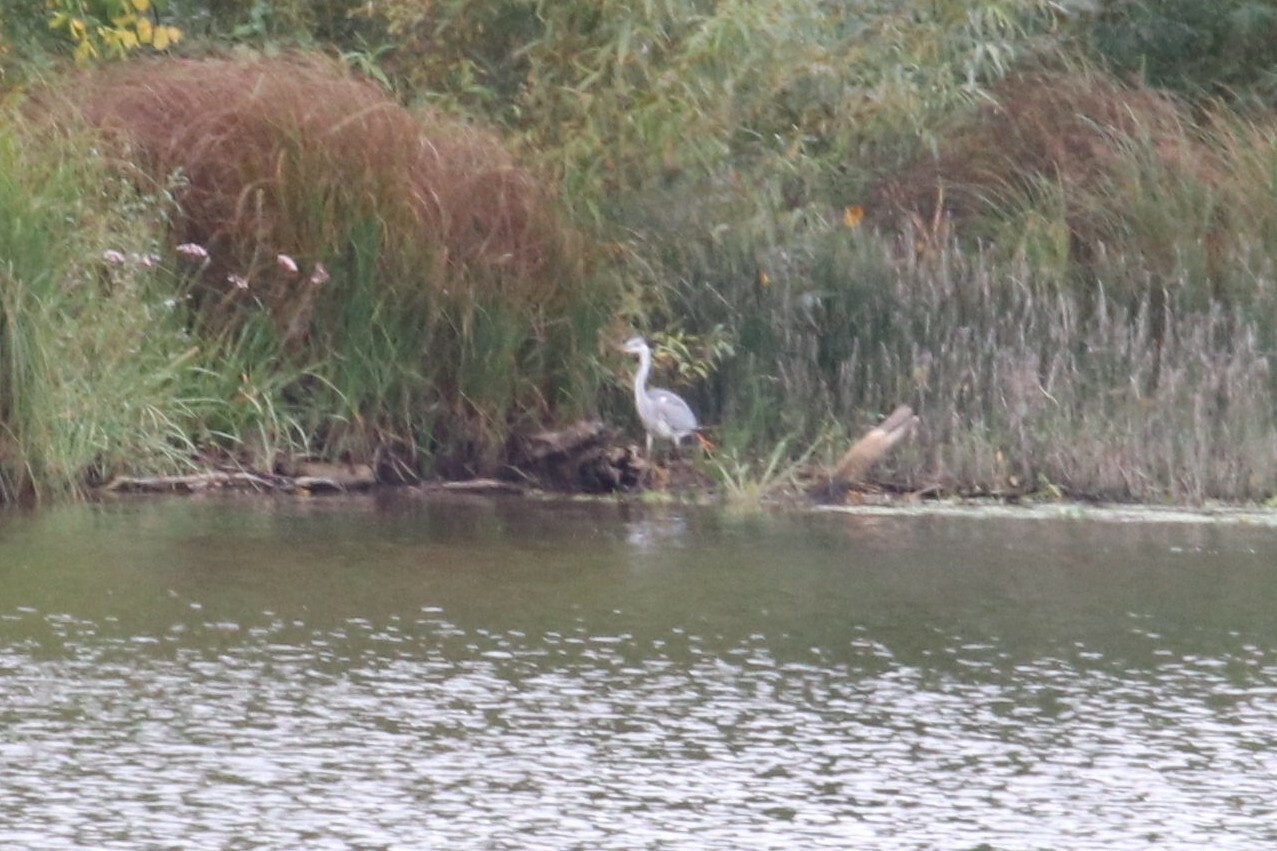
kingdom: Animalia
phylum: Chordata
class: Aves
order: Pelecaniformes
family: Ardeidae
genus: Ardea
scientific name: Ardea cinerea
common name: Grey heron
